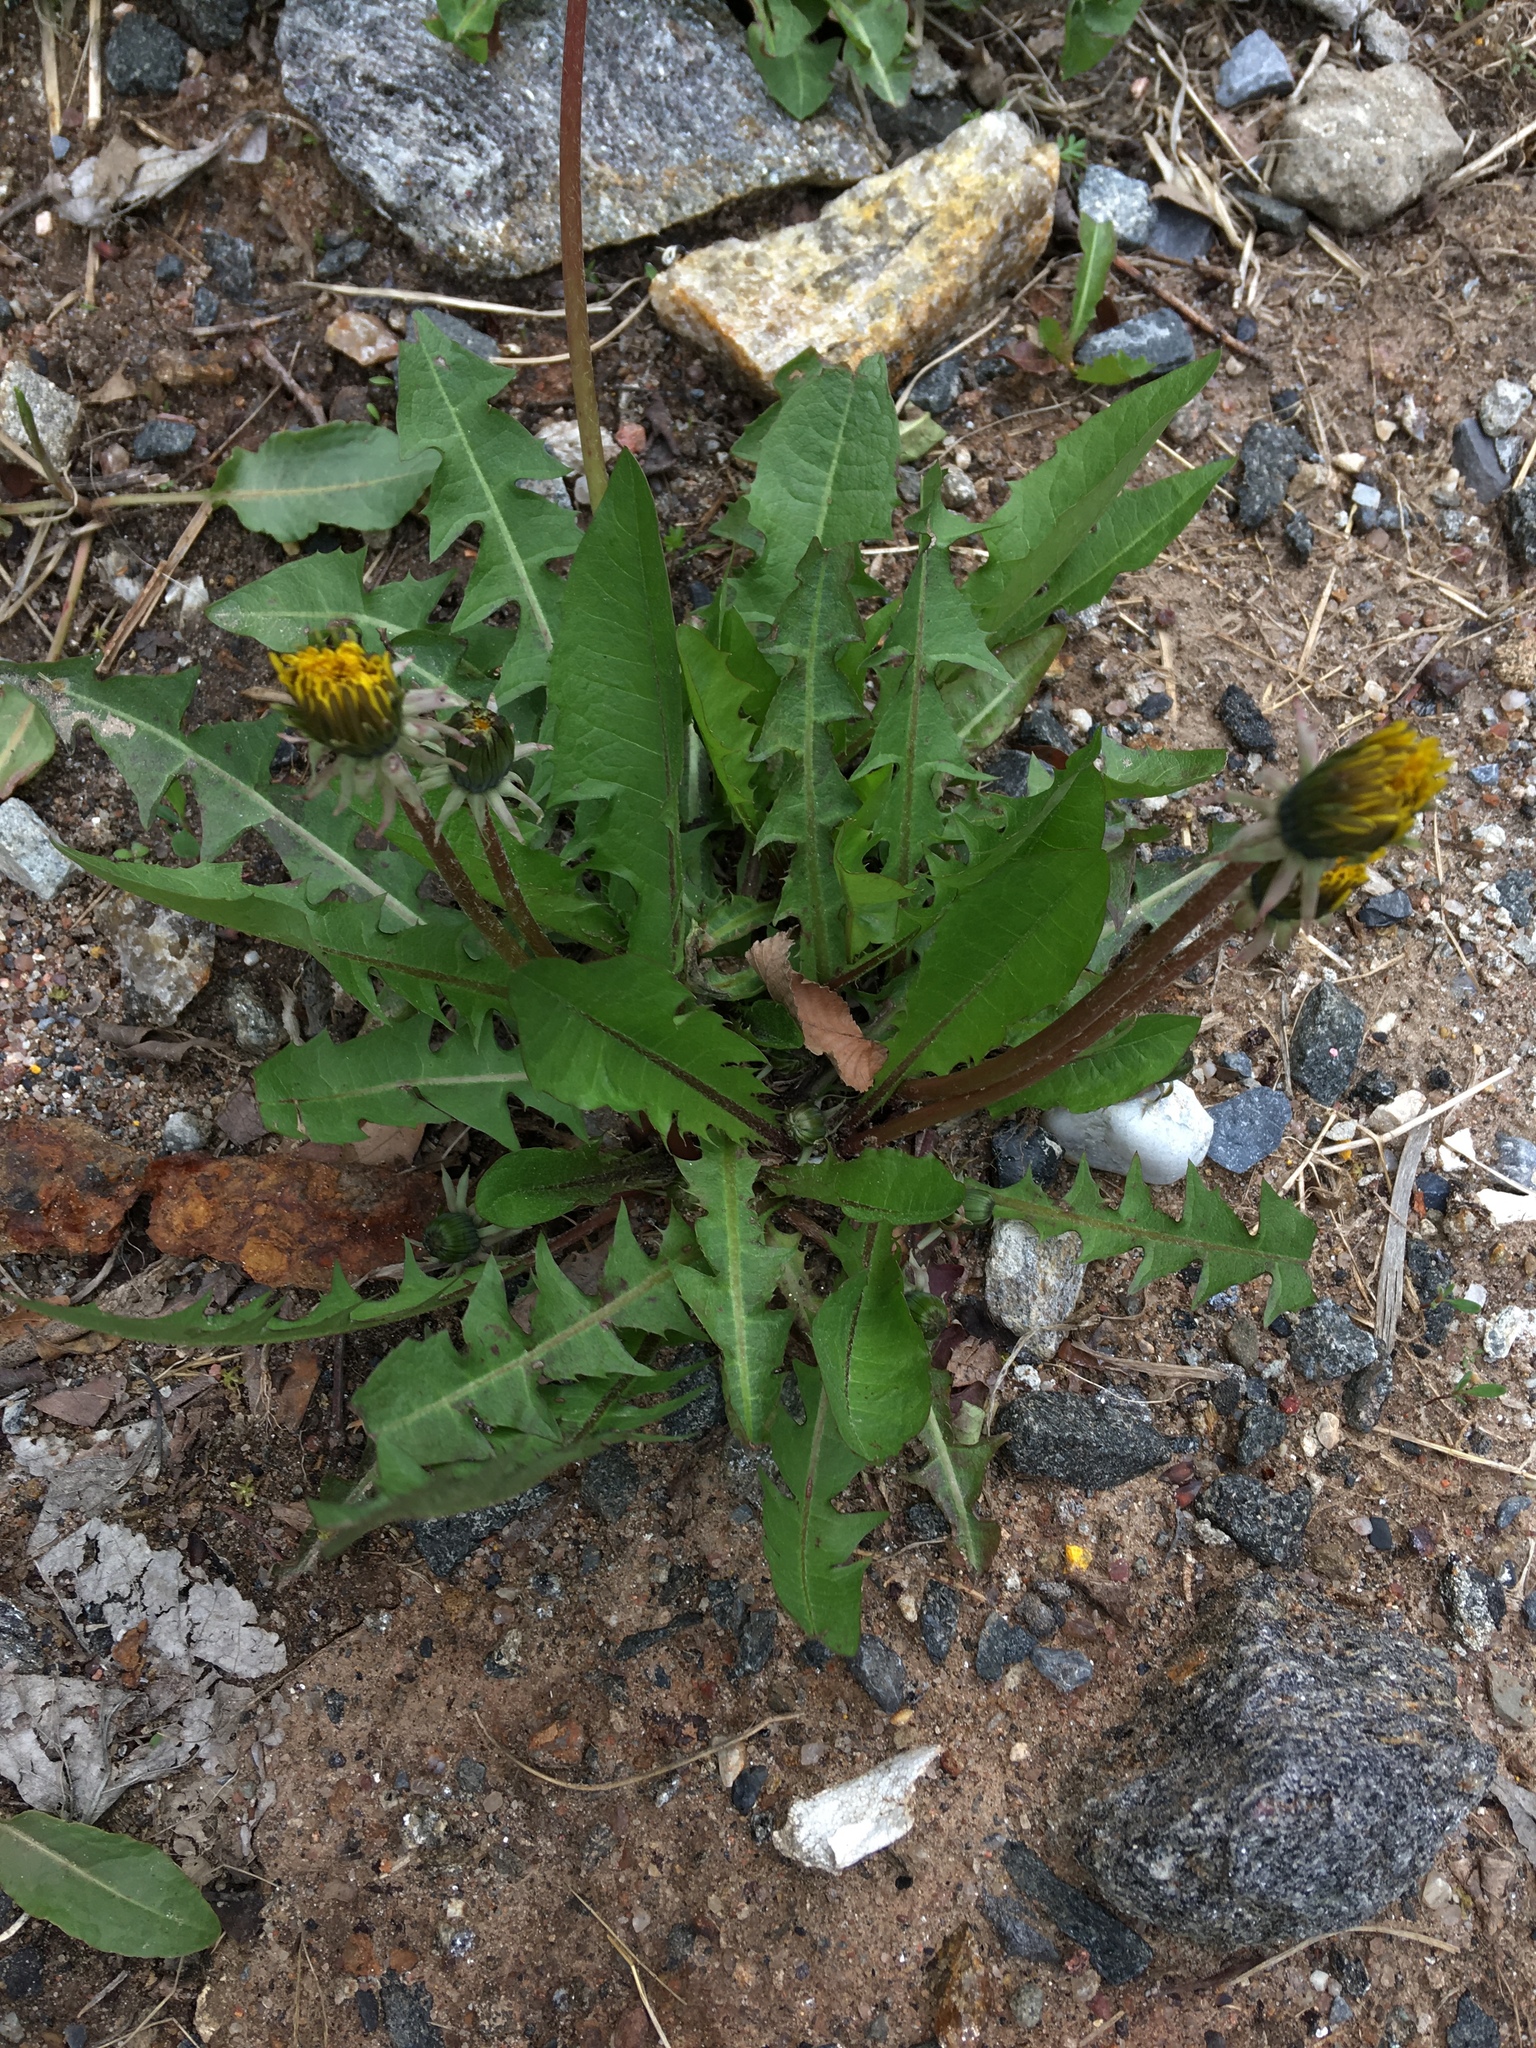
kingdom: Plantae
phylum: Tracheophyta
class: Magnoliopsida
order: Asterales
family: Asteraceae
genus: Taraxacum
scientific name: Taraxacum officinale
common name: Common dandelion
